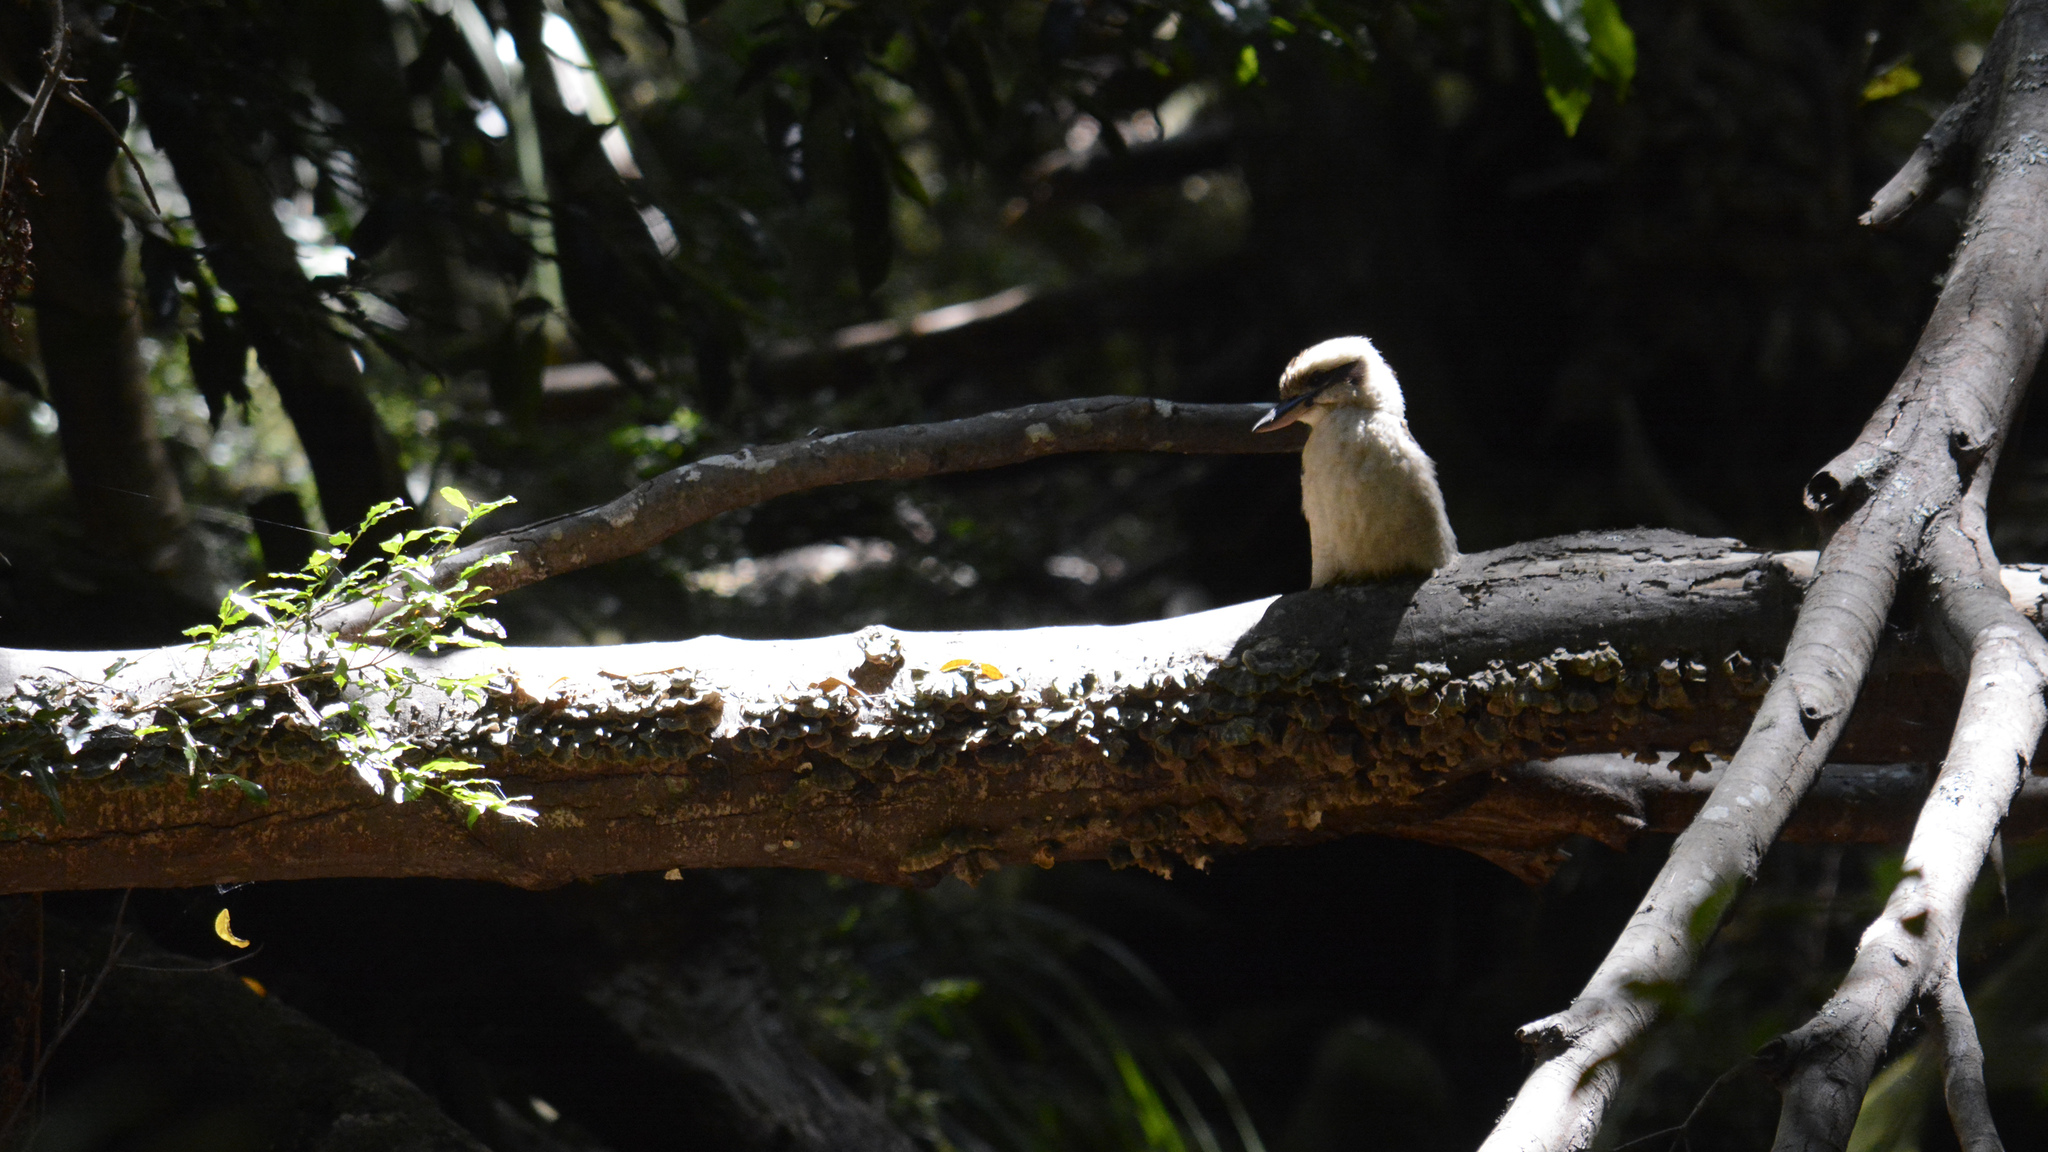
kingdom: Animalia
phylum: Chordata
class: Aves
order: Coraciiformes
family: Alcedinidae
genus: Dacelo
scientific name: Dacelo novaeguineae
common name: Laughing kookaburra
